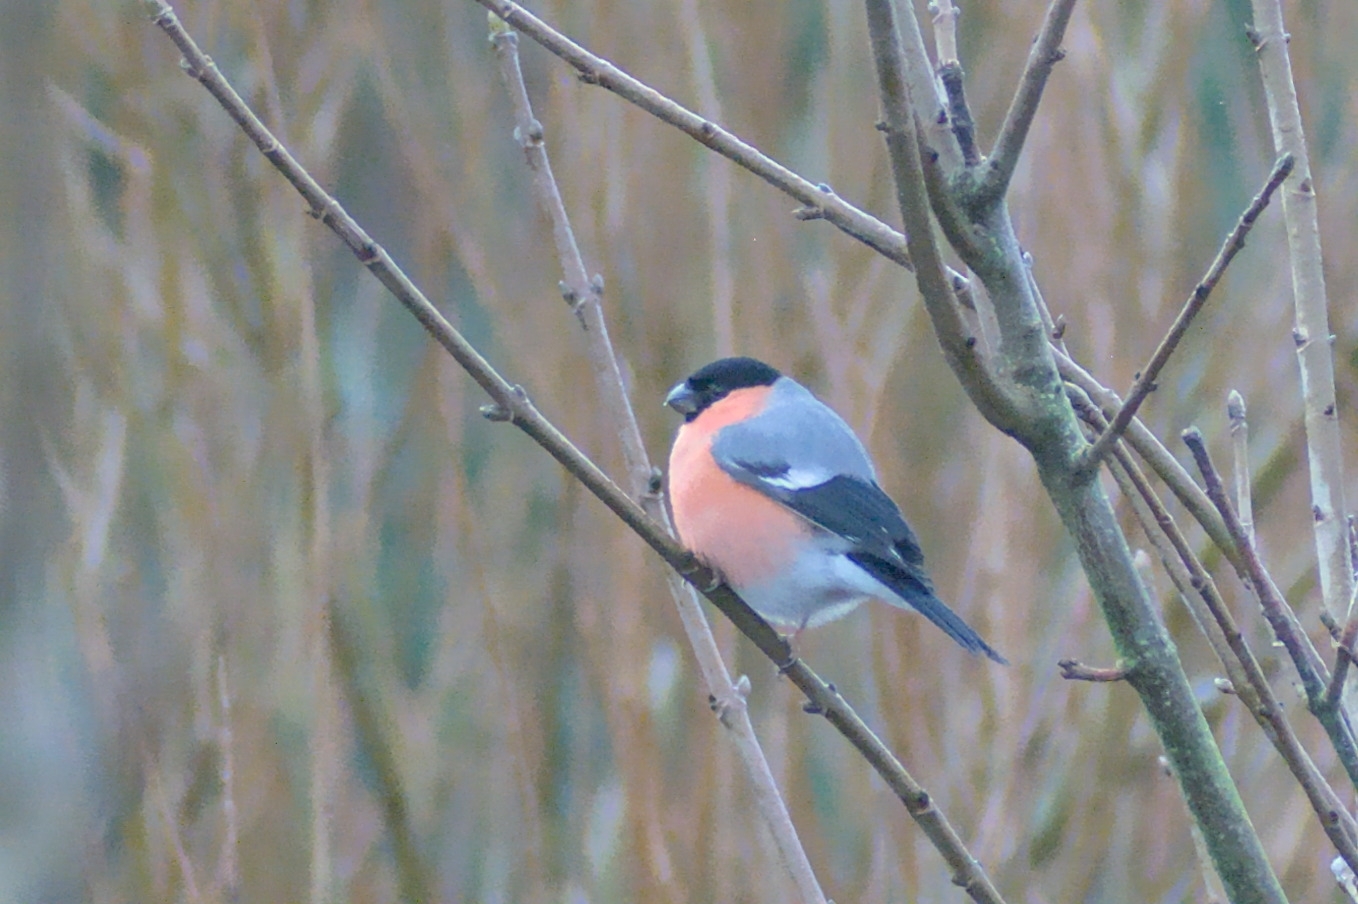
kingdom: Animalia
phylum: Chordata
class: Aves
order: Passeriformes
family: Fringillidae
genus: Pyrrhula
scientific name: Pyrrhula pyrrhula
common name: Eurasian bullfinch
